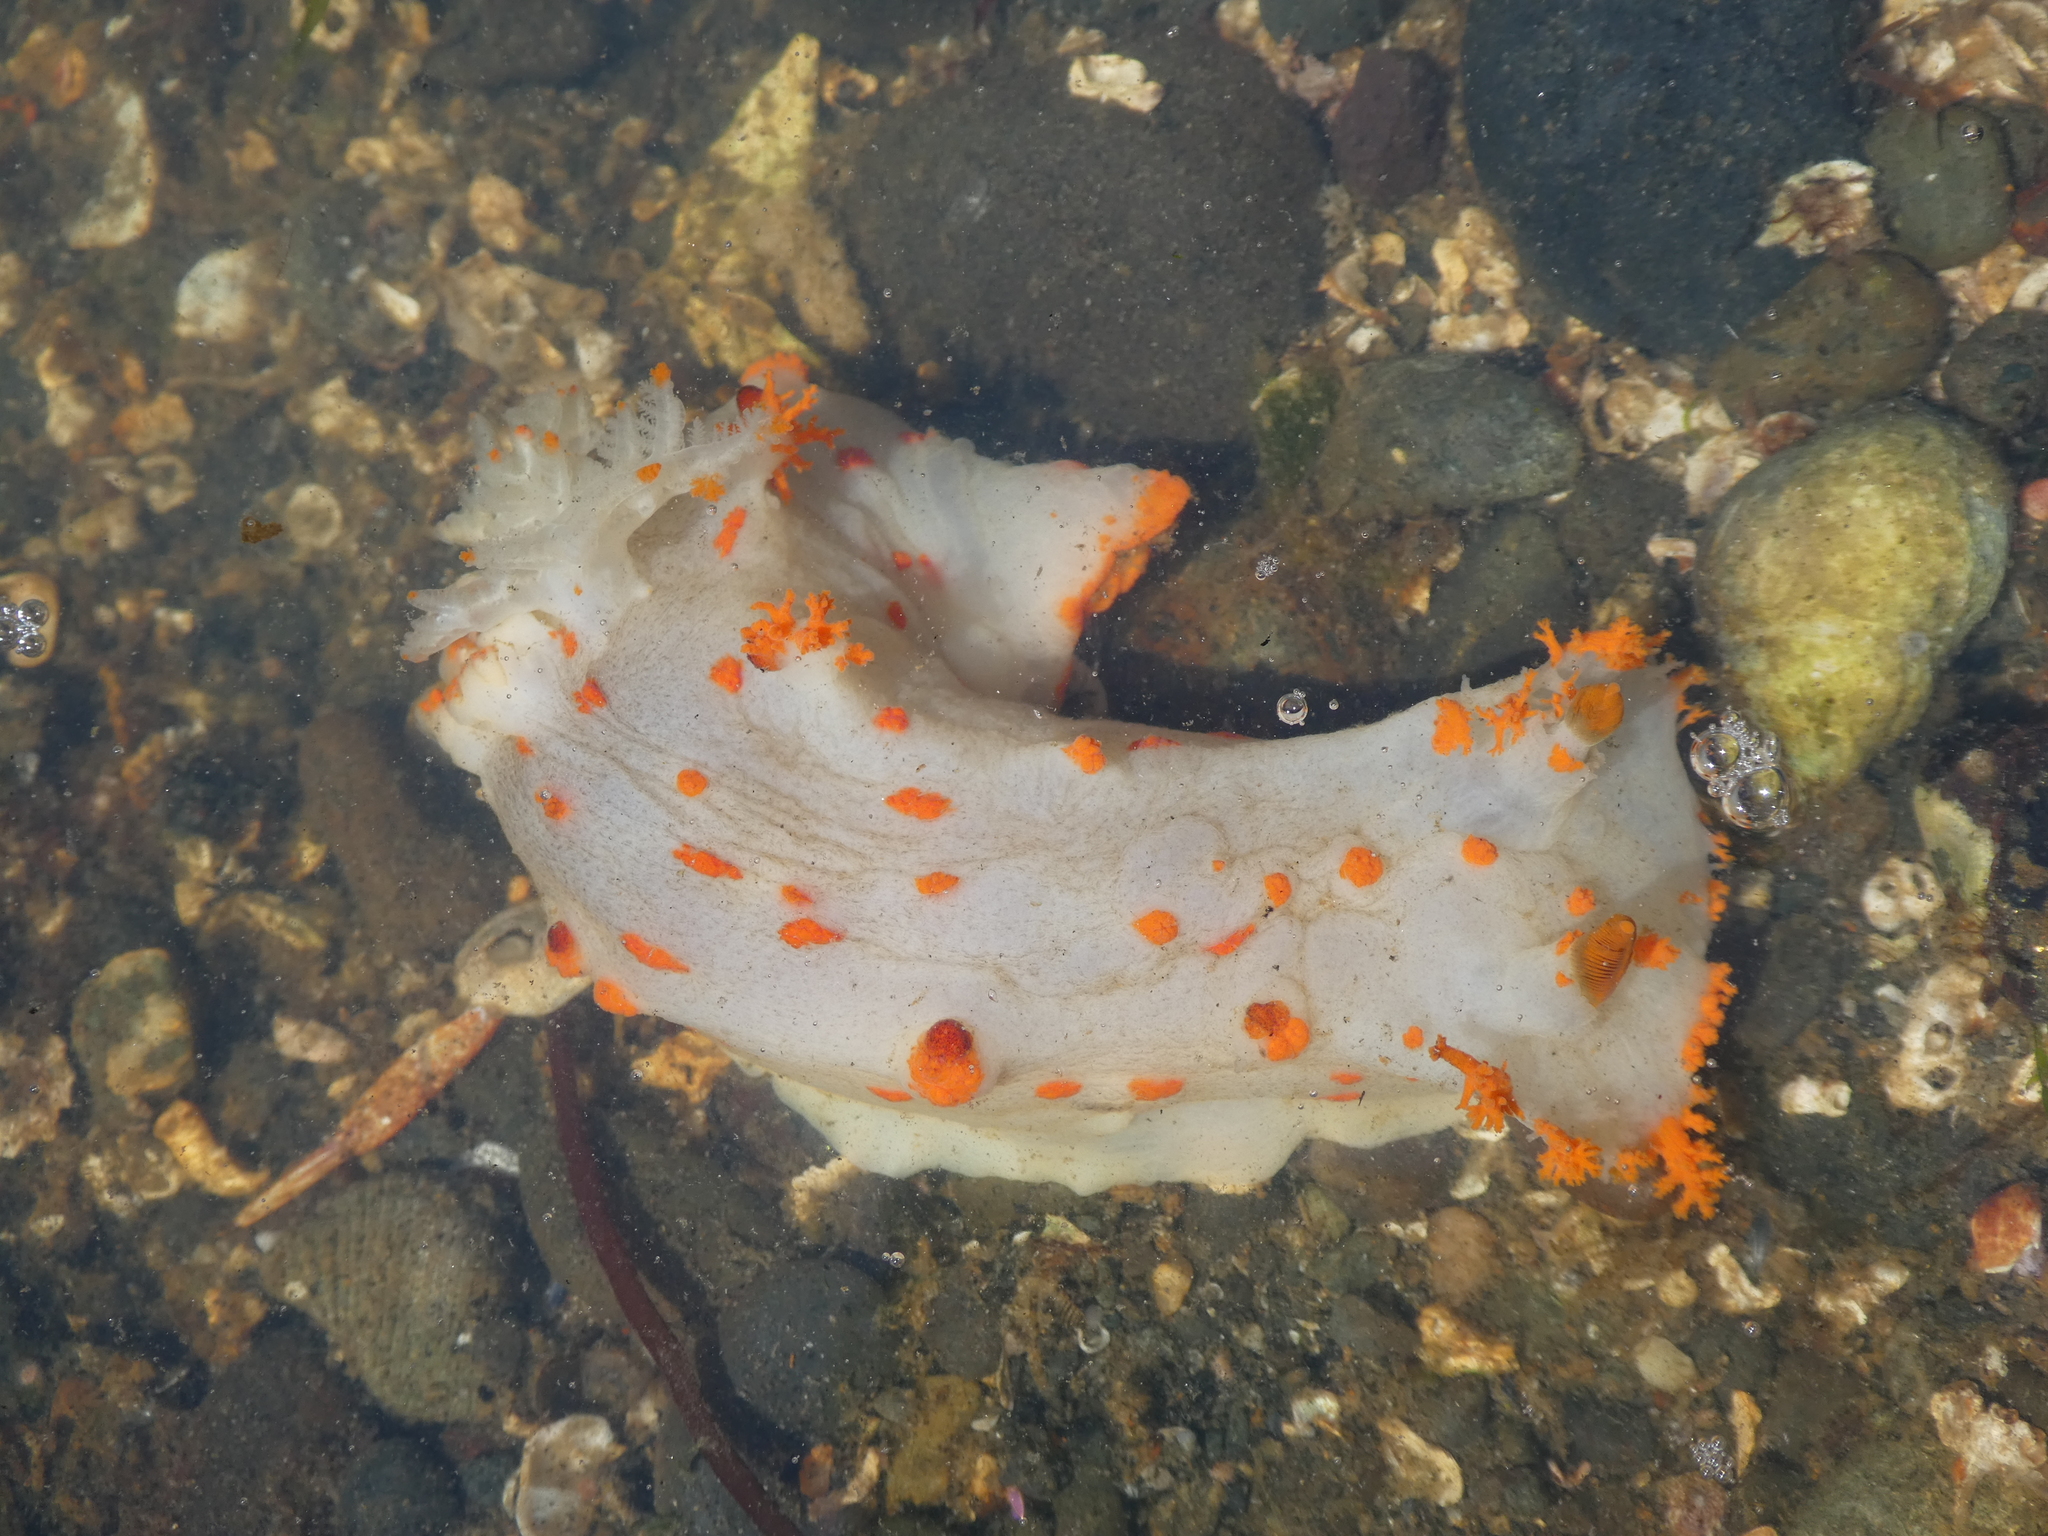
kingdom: Animalia
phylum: Mollusca
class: Gastropoda
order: Nudibranchia
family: Polyceridae
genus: Triopha
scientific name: Triopha modesta
